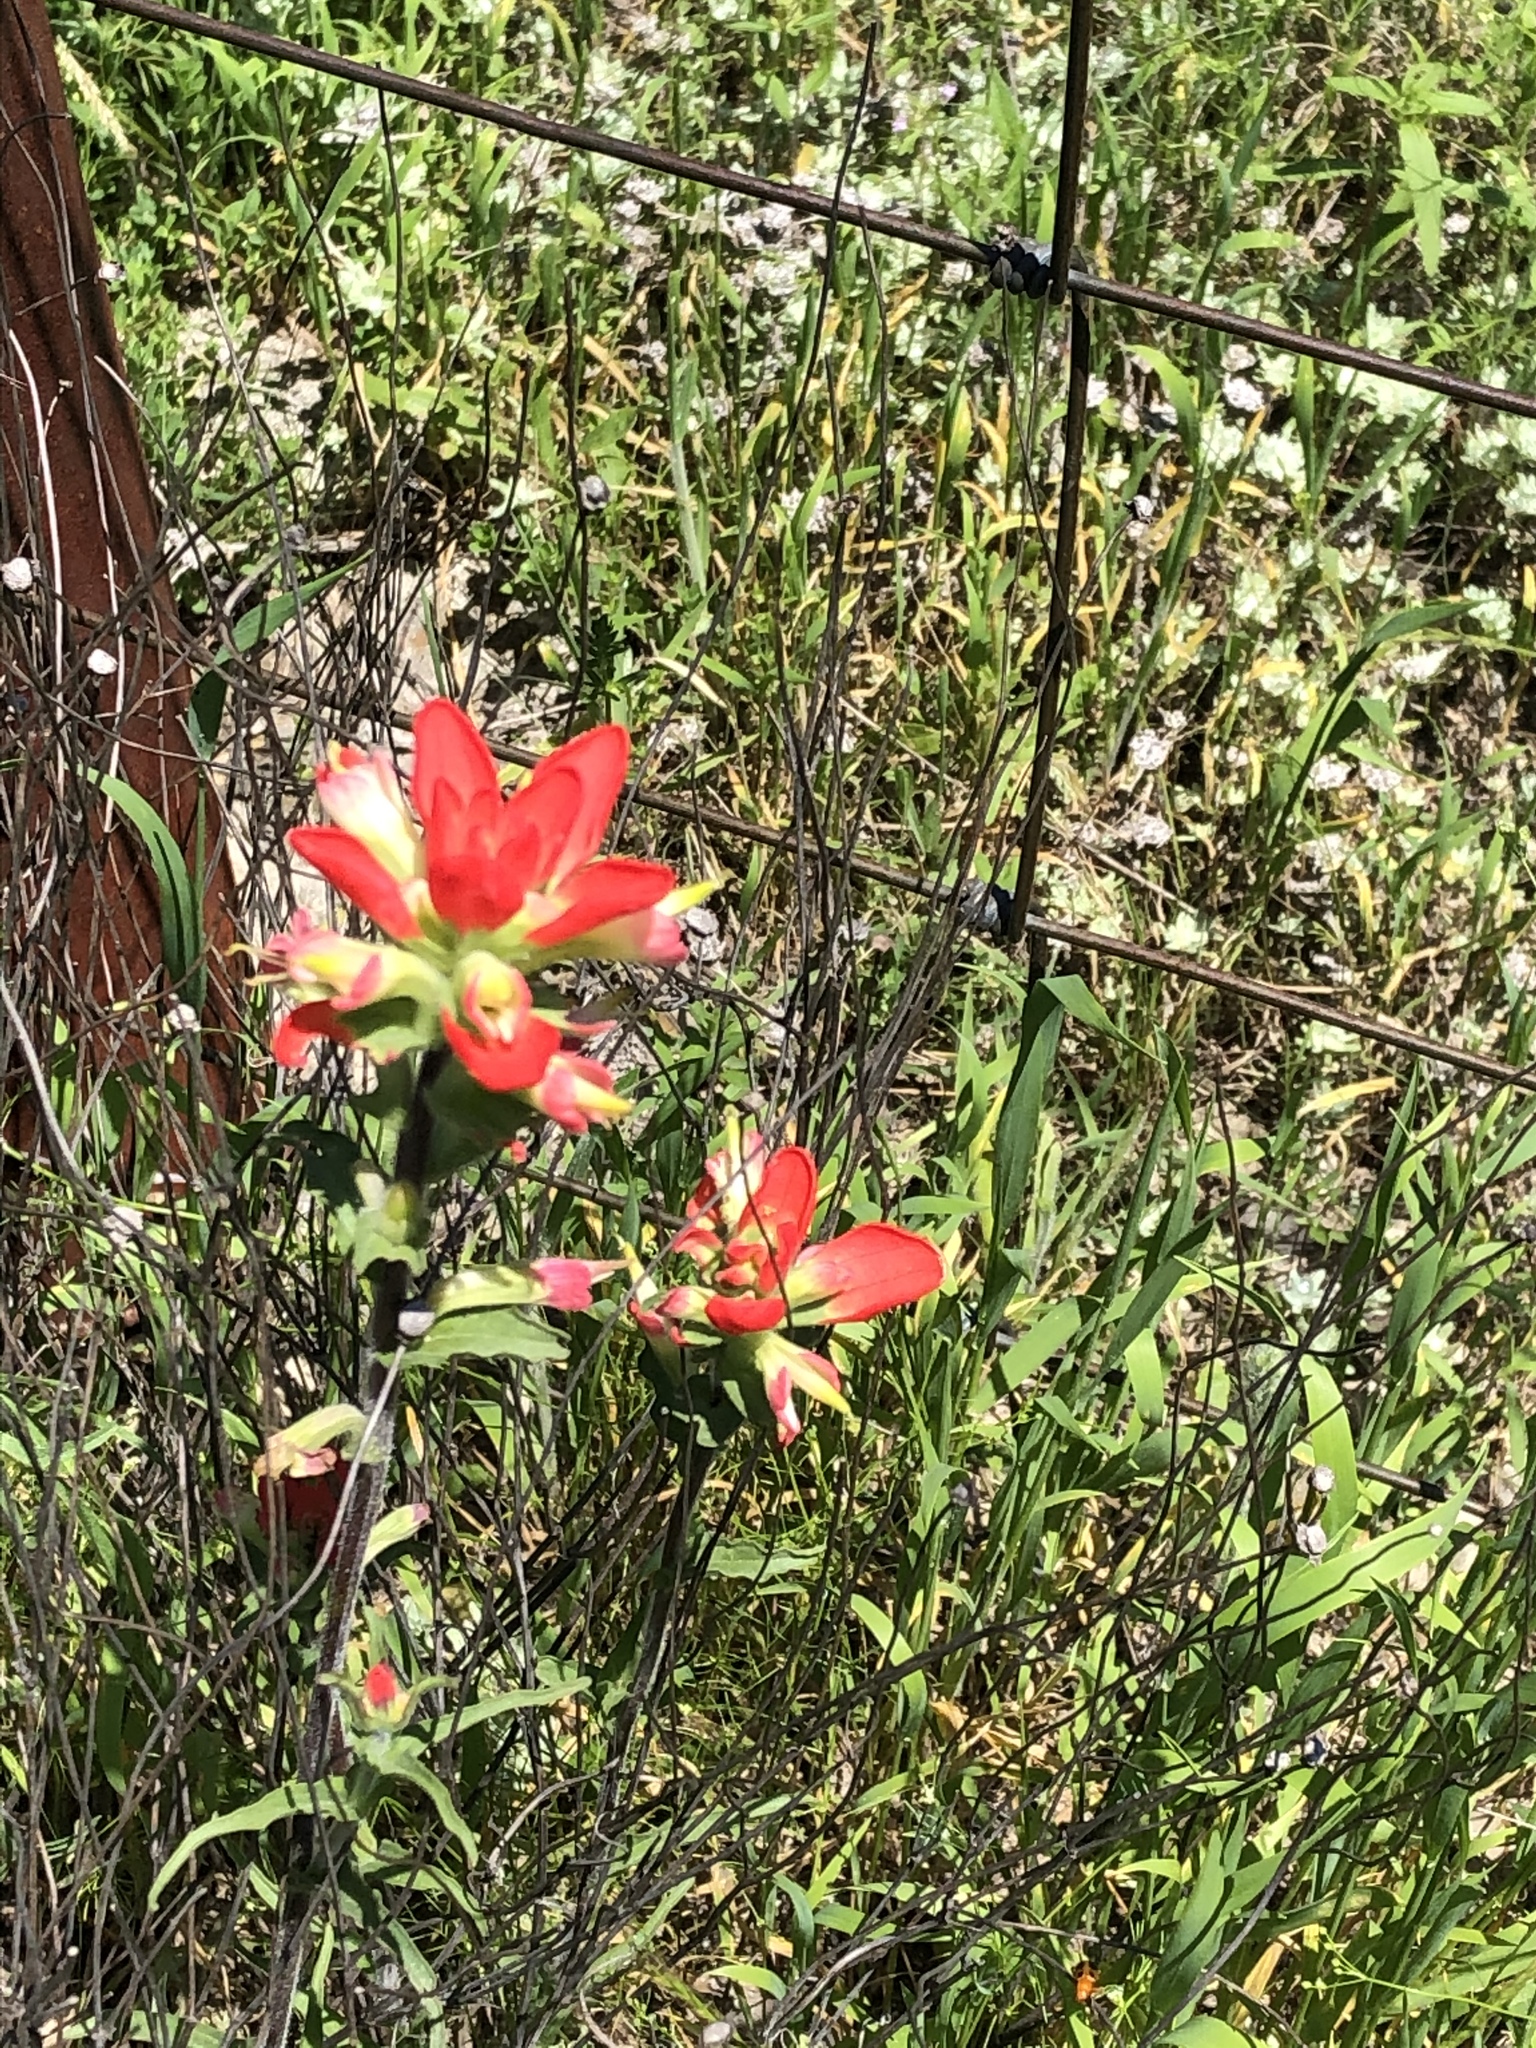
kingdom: Plantae
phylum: Tracheophyta
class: Magnoliopsida
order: Lamiales
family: Orobanchaceae
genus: Castilleja
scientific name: Castilleja indivisa
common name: Texas paintbrush
